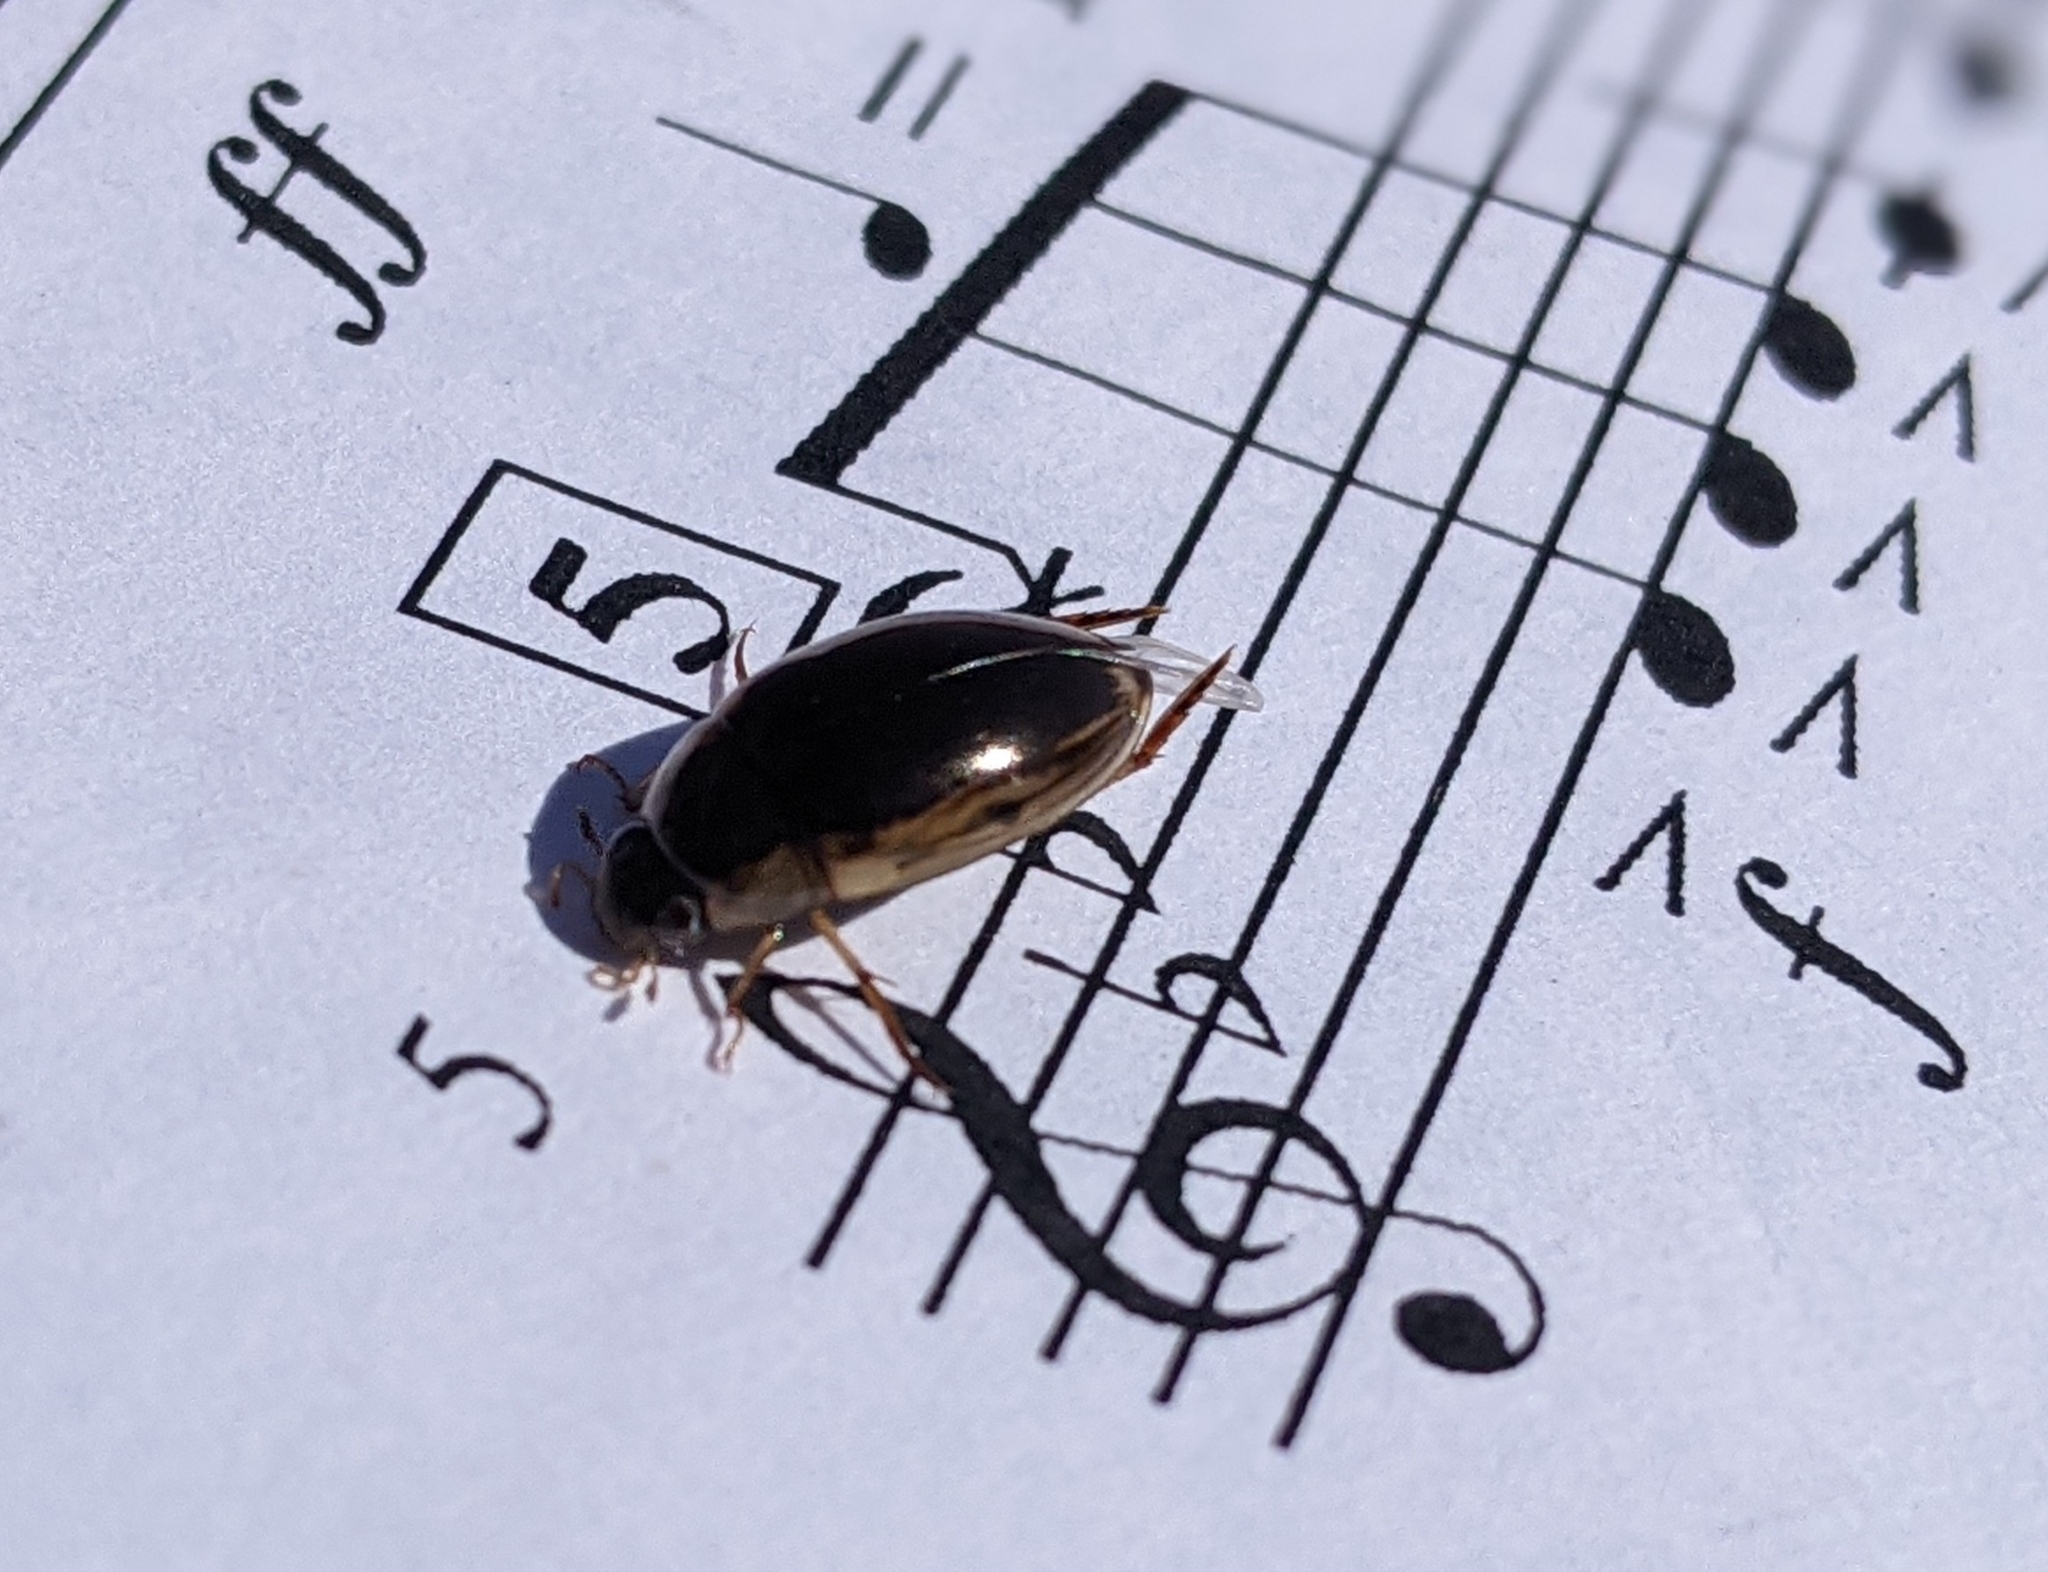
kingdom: Animalia
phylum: Arthropoda
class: Insecta
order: Coleoptera
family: Hydrophilidae
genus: Tropisternus
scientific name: Tropisternus lateralis
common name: Lateral-banded water scavenger beetle
